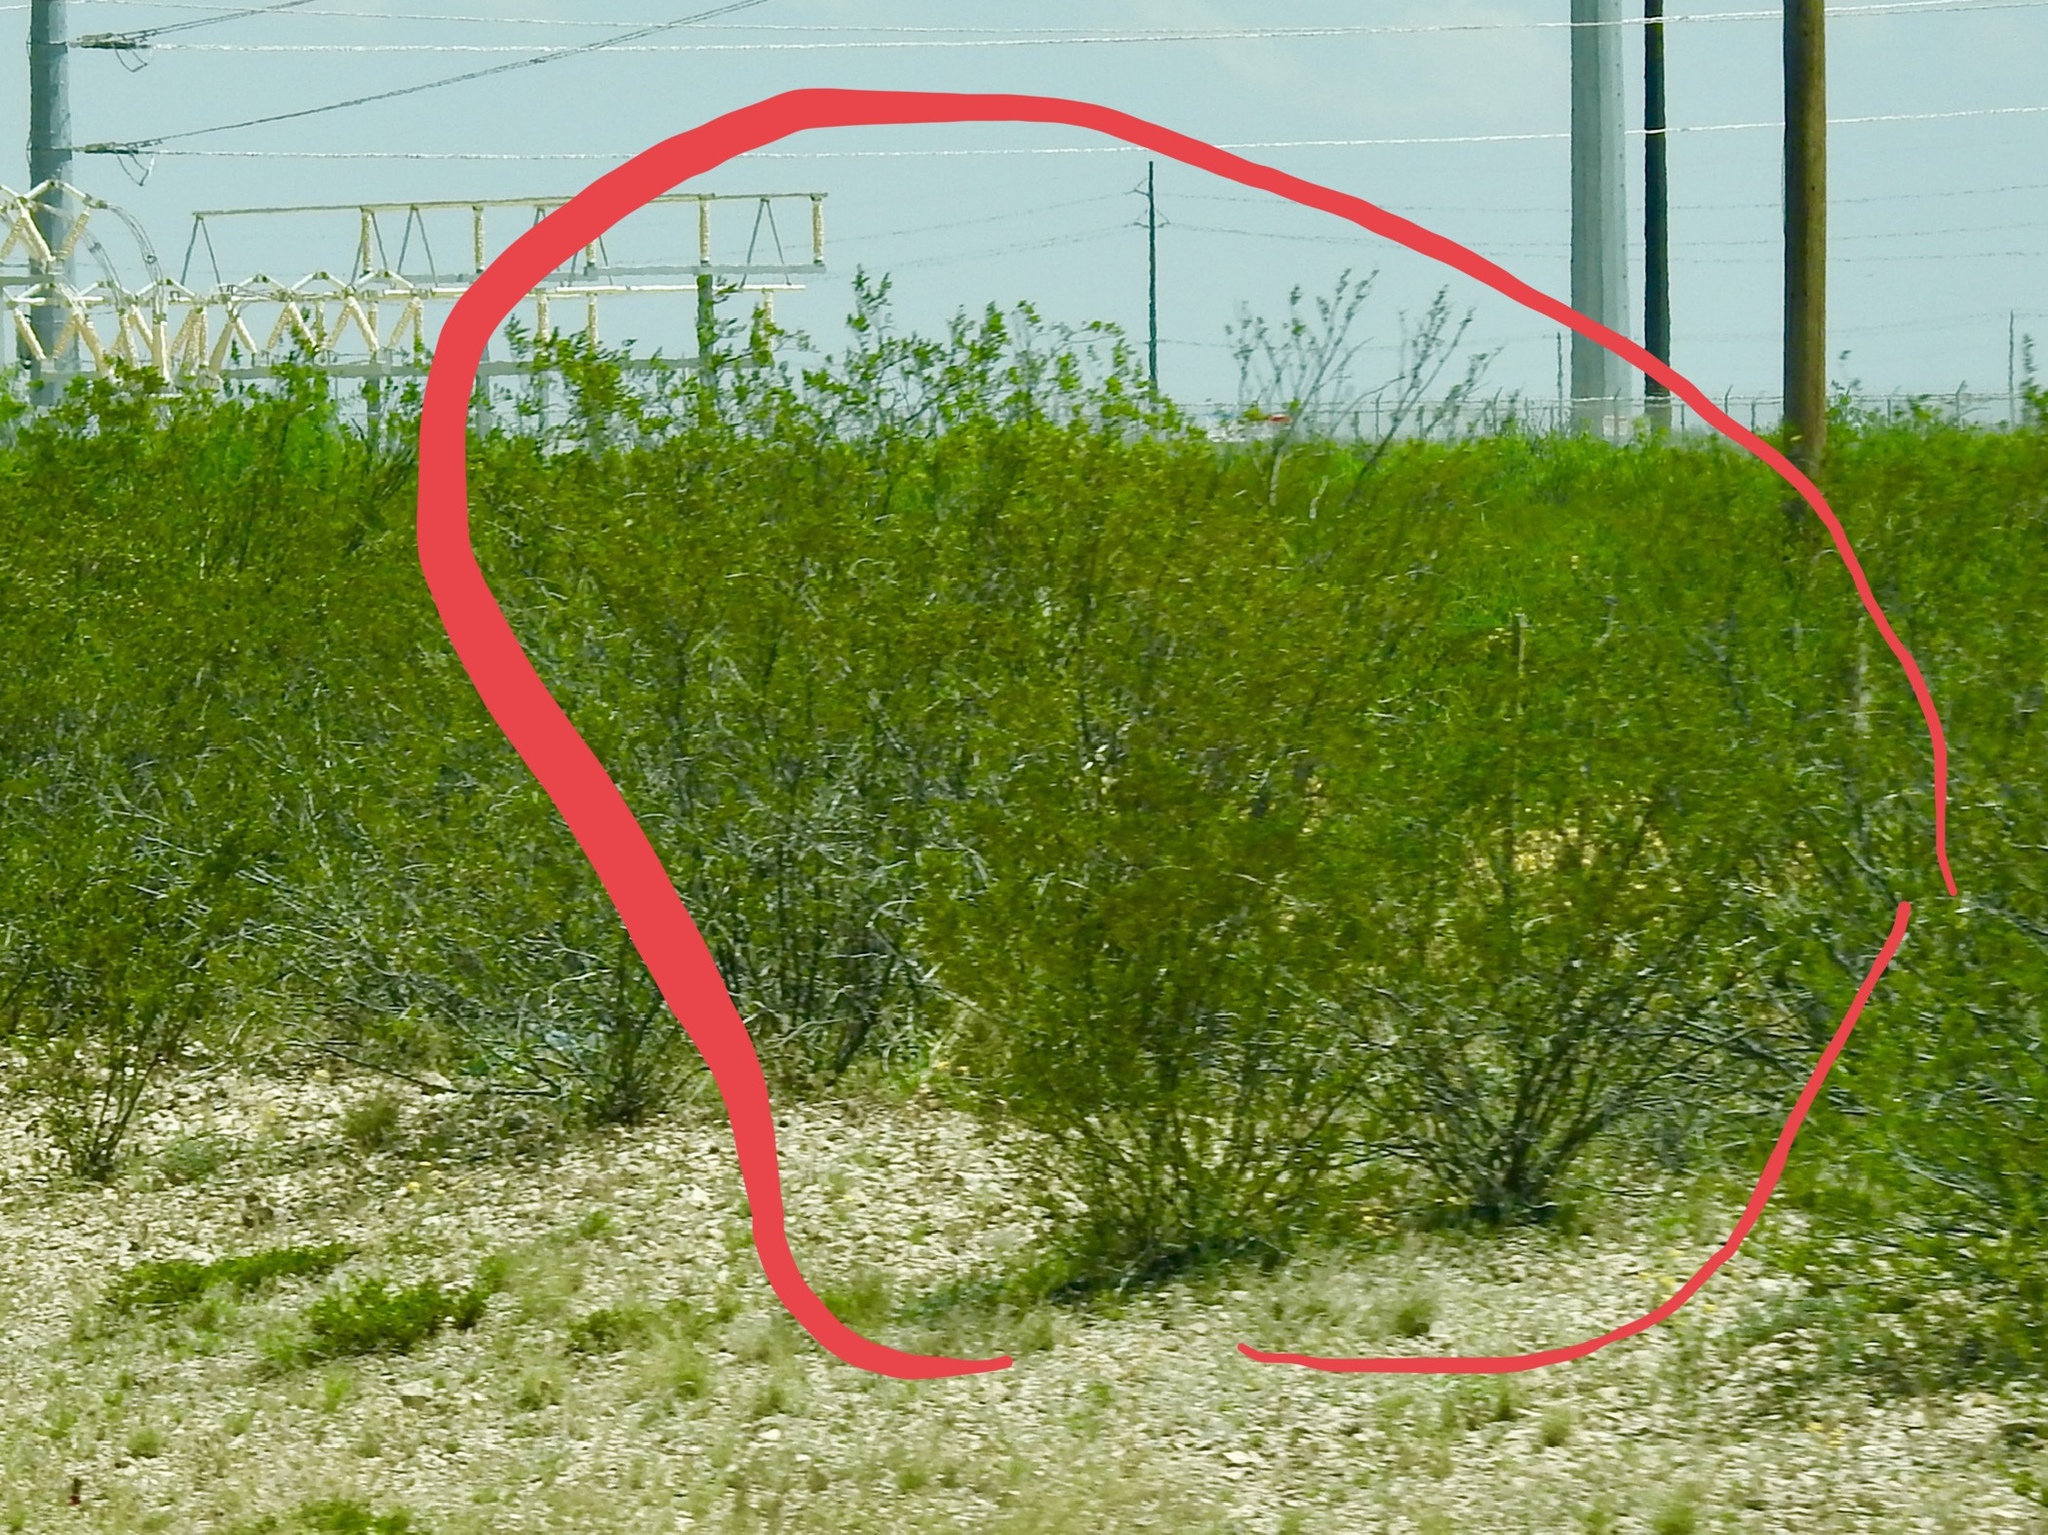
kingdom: Plantae
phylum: Tracheophyta
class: Magnoliopsida
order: Zygophyllales
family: Zygophyllaceae
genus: Larrea
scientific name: Larrea tridentata
